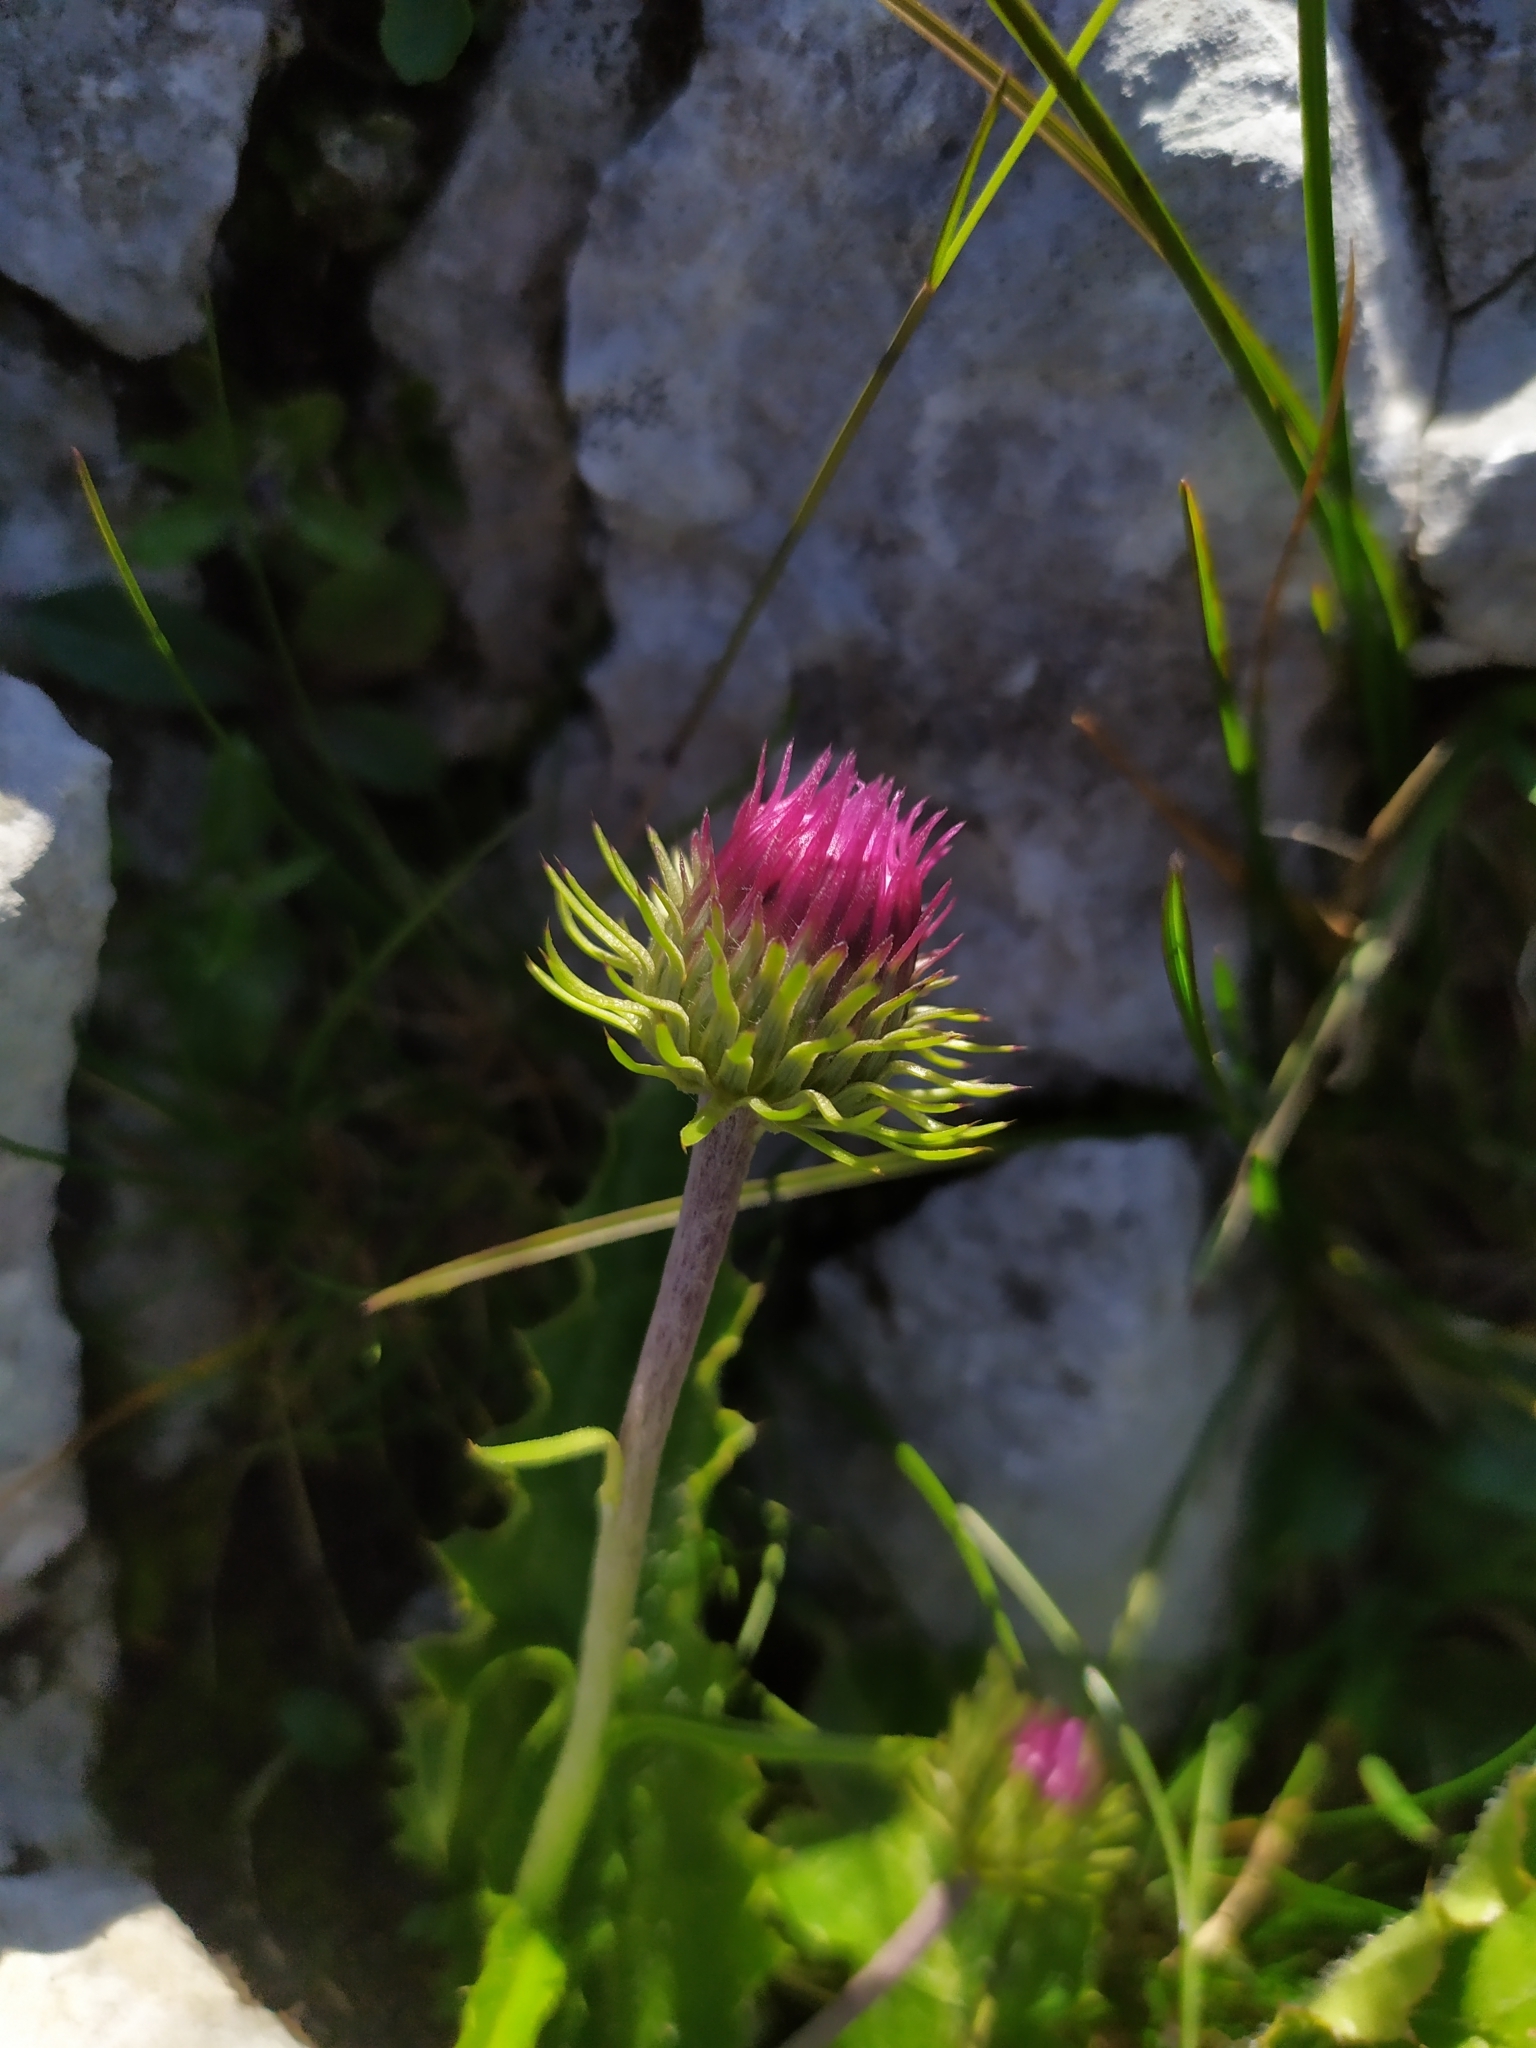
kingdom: Plantae
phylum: Tracheophyta
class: Magnoliopsida
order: Asterales
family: Asteraceae
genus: Carduus
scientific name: Carduus defloratus
